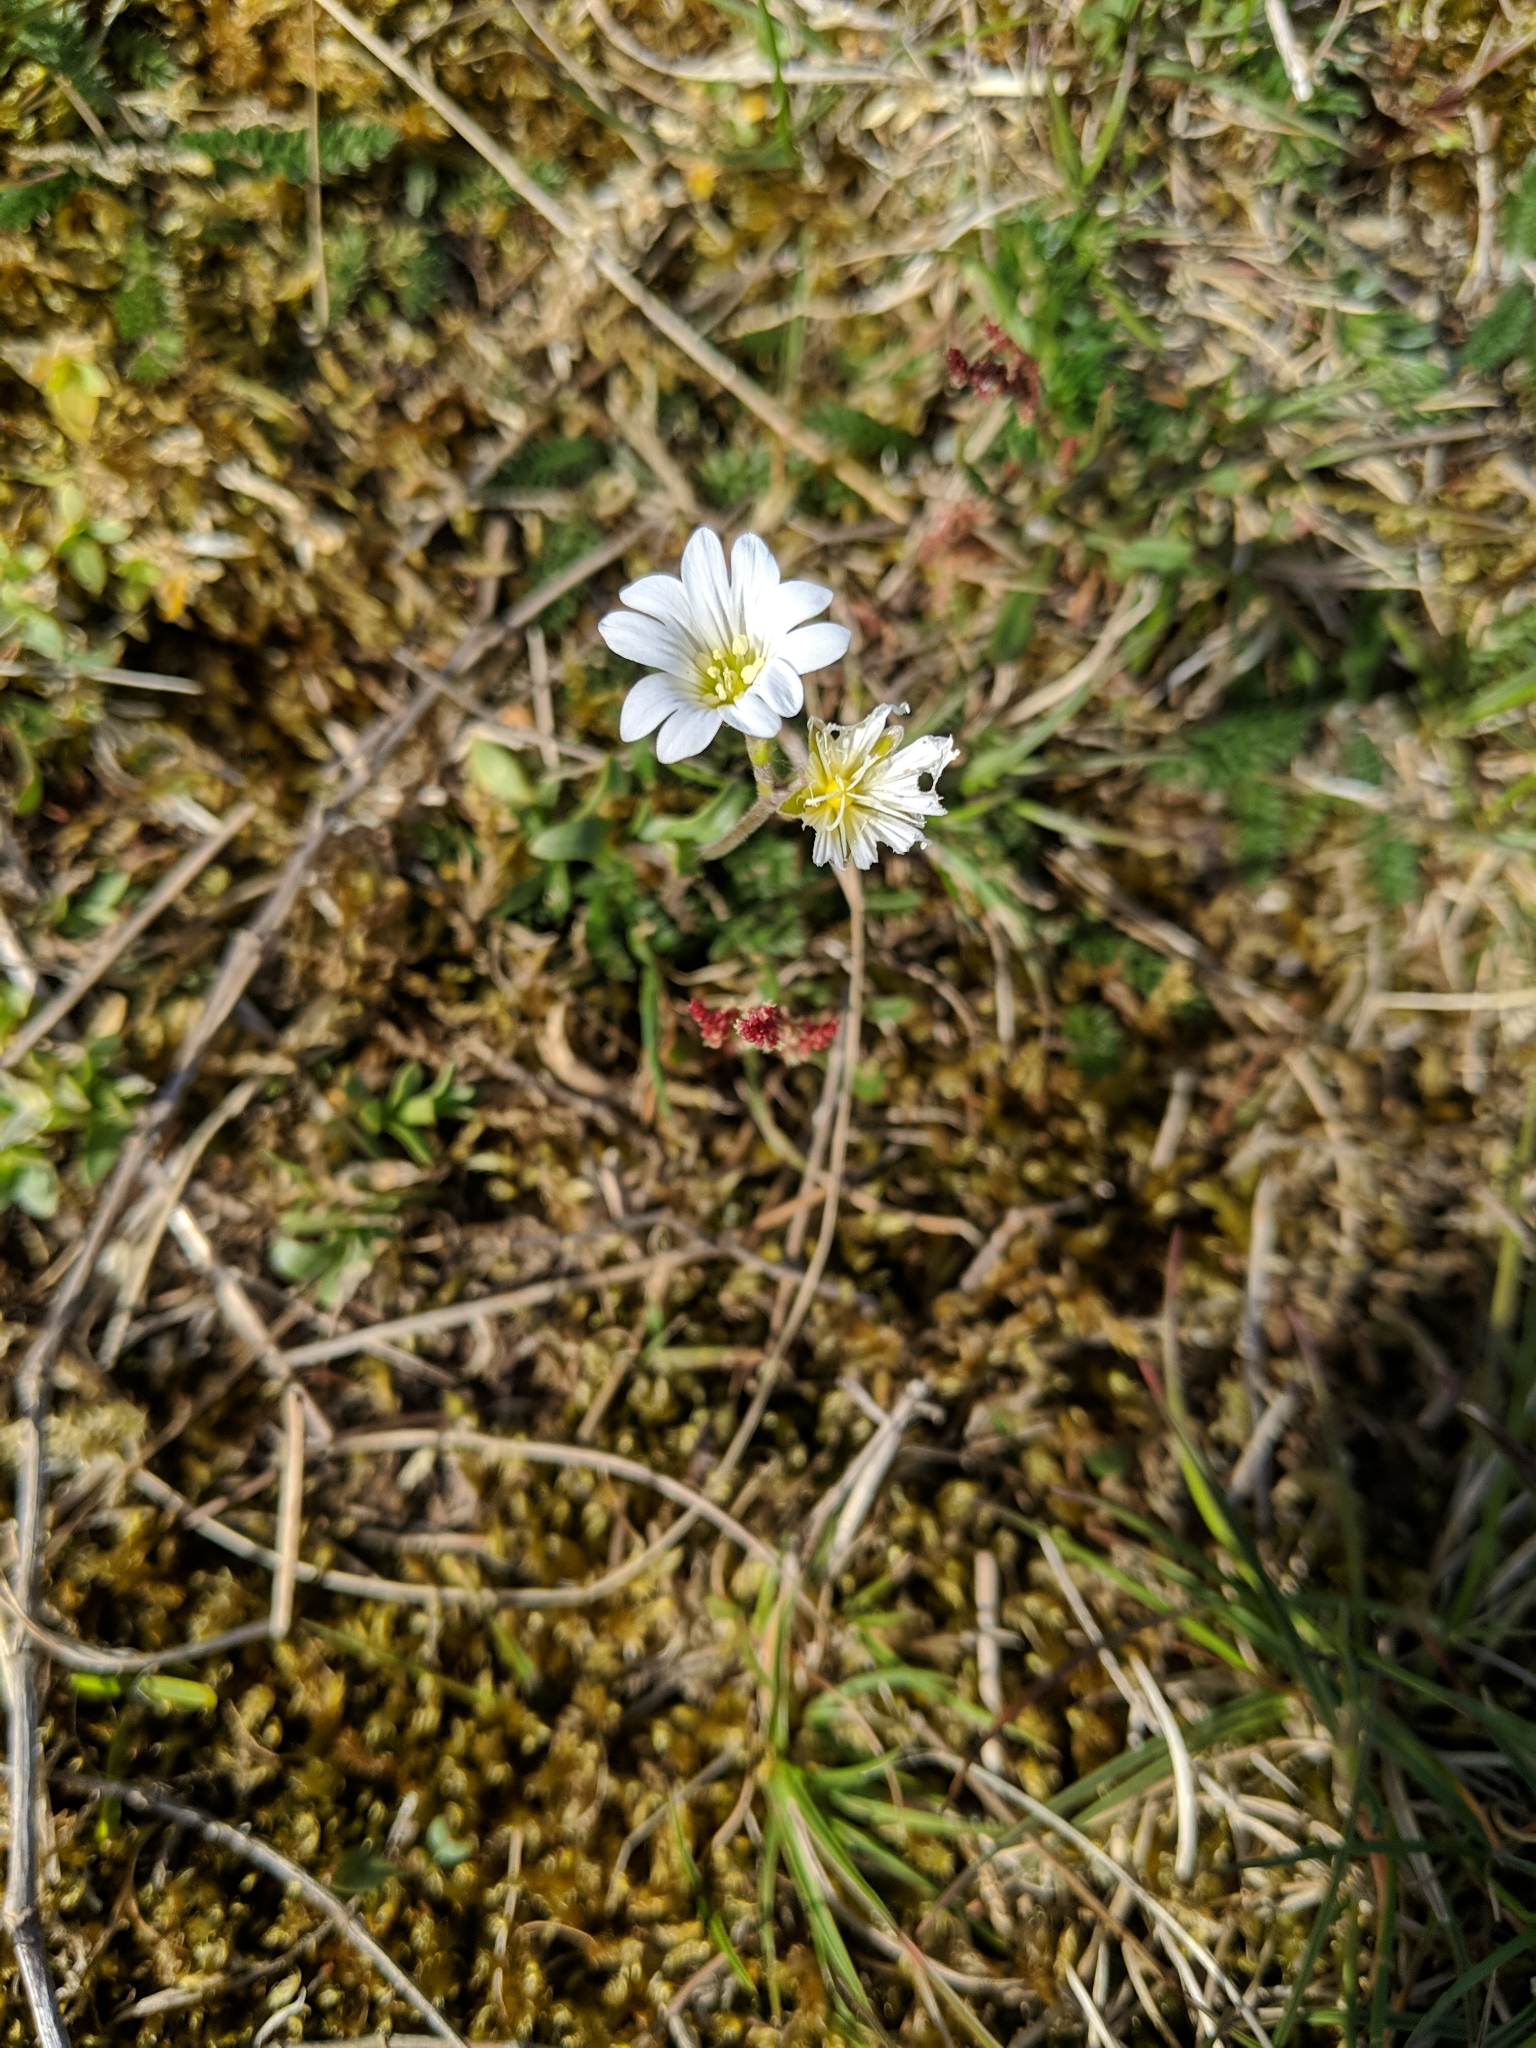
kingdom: Plantae
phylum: Tracheophyta
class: Magnoliopsida
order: Caryophyllales
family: Caryophyllaceae
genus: Cerastium
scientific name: Cerastium arvense
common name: Field mouse-ear
